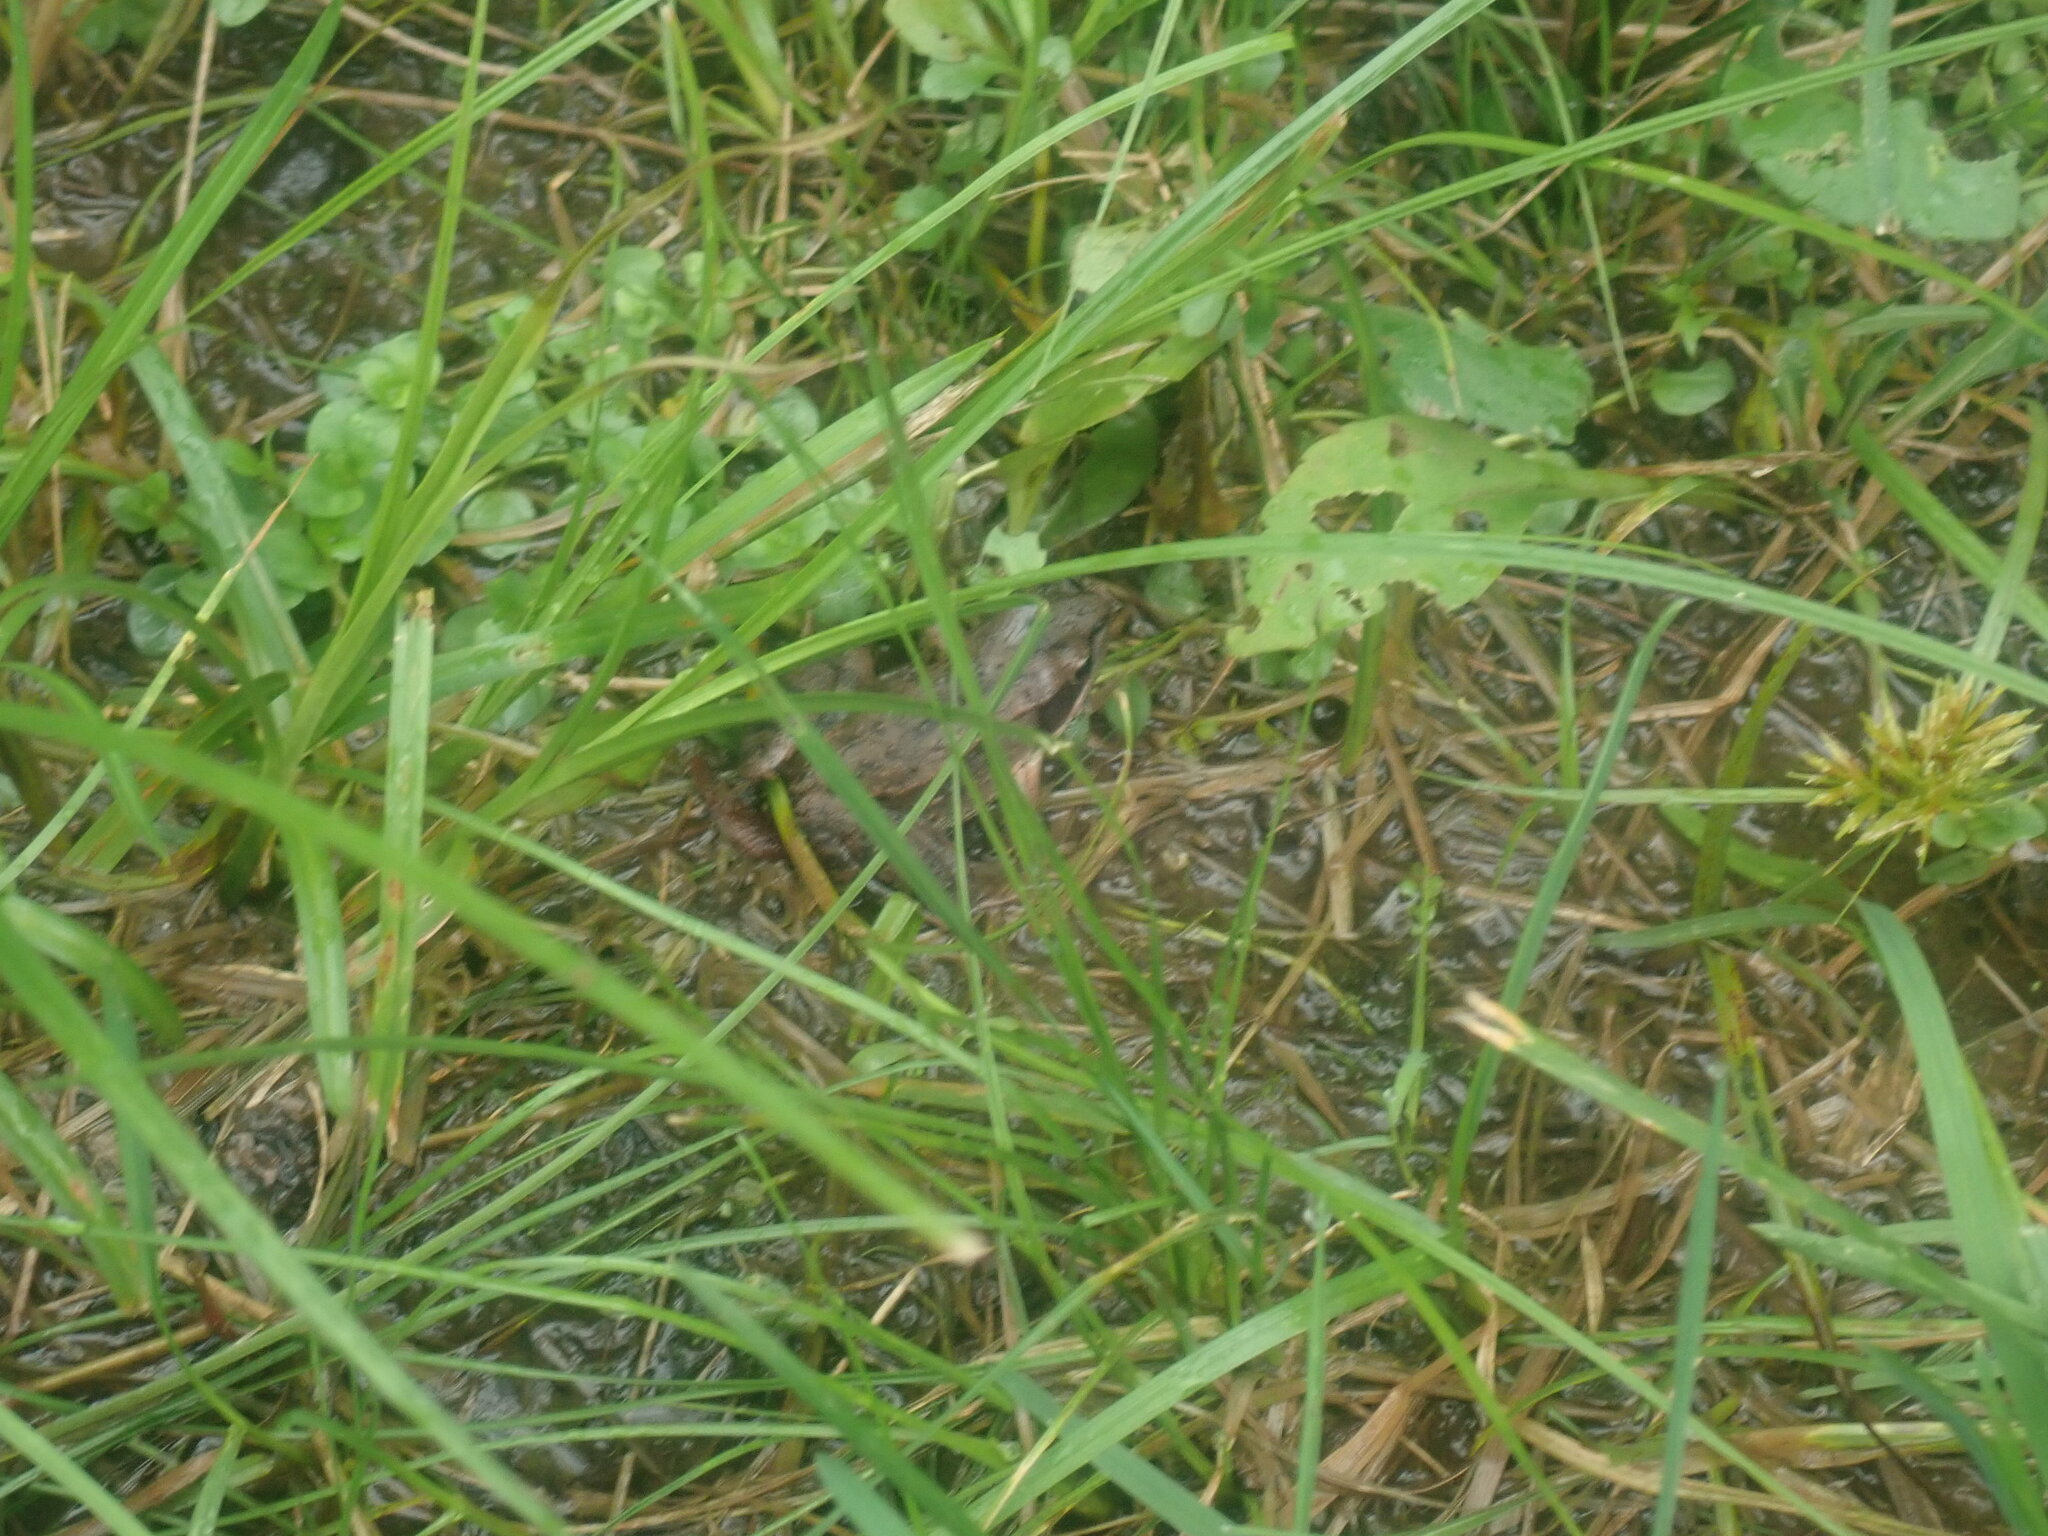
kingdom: Animalia
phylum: Chordata
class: Amphibia
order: Anura
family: Ranidae
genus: Lithobates
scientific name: Lithobates sylvaticus
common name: Wood frog
